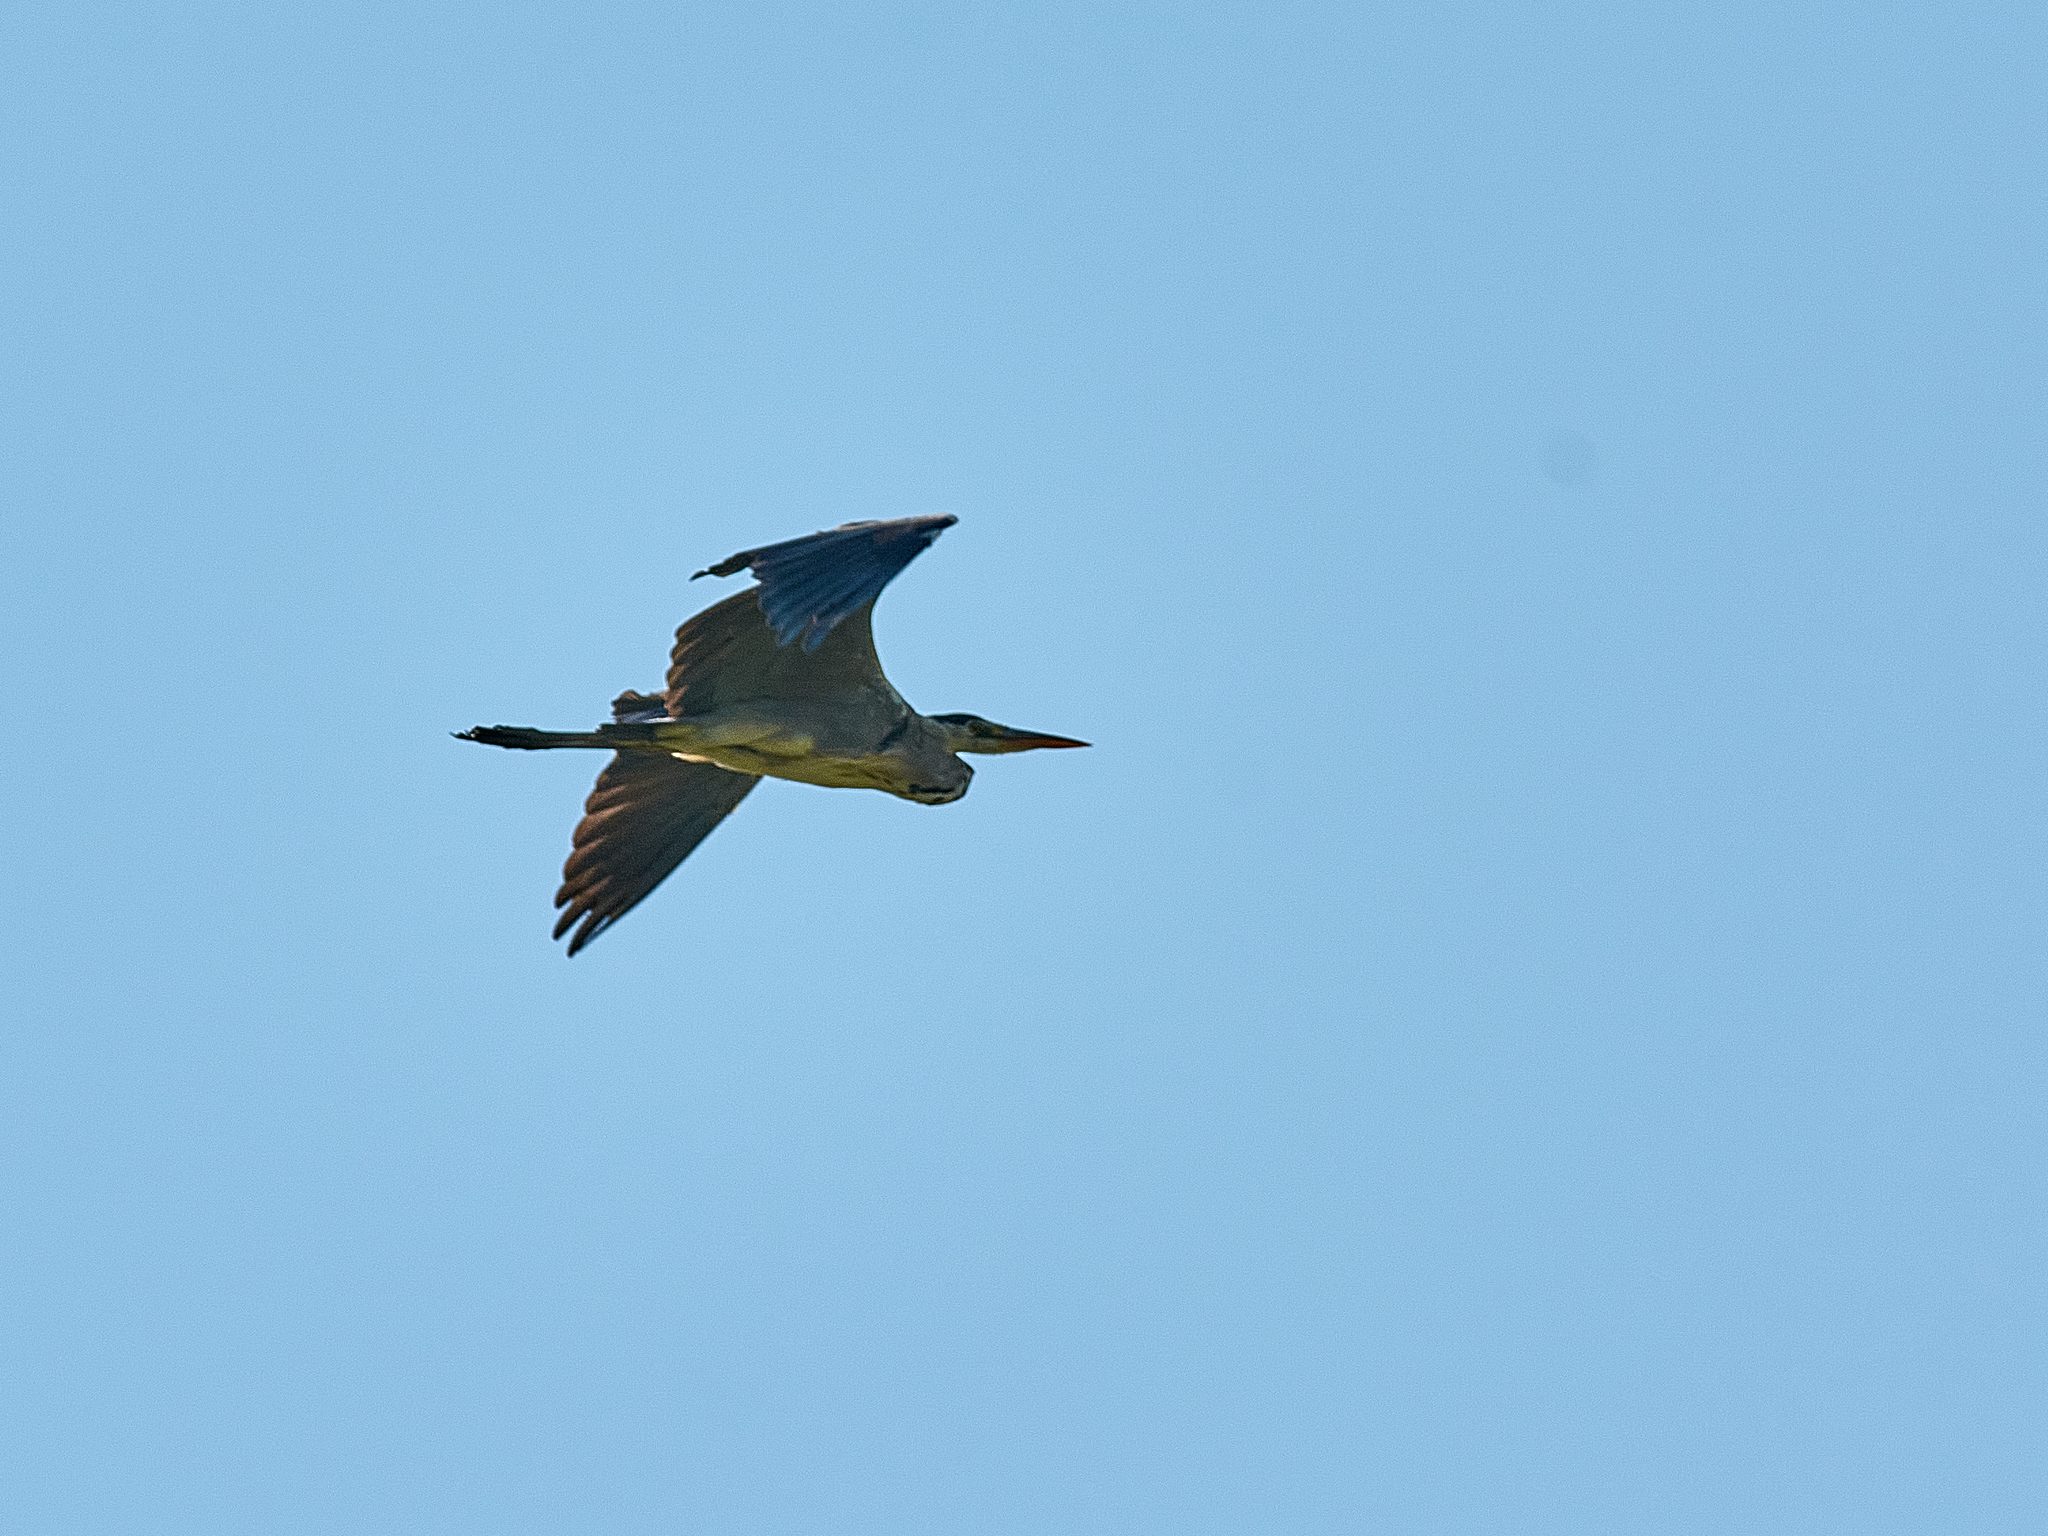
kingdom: Animalia
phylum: Chordata
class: Aves
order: Pelecaniformes
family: Ardeidae
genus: Ardea
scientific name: Ardea cinerea
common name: Grey heron
